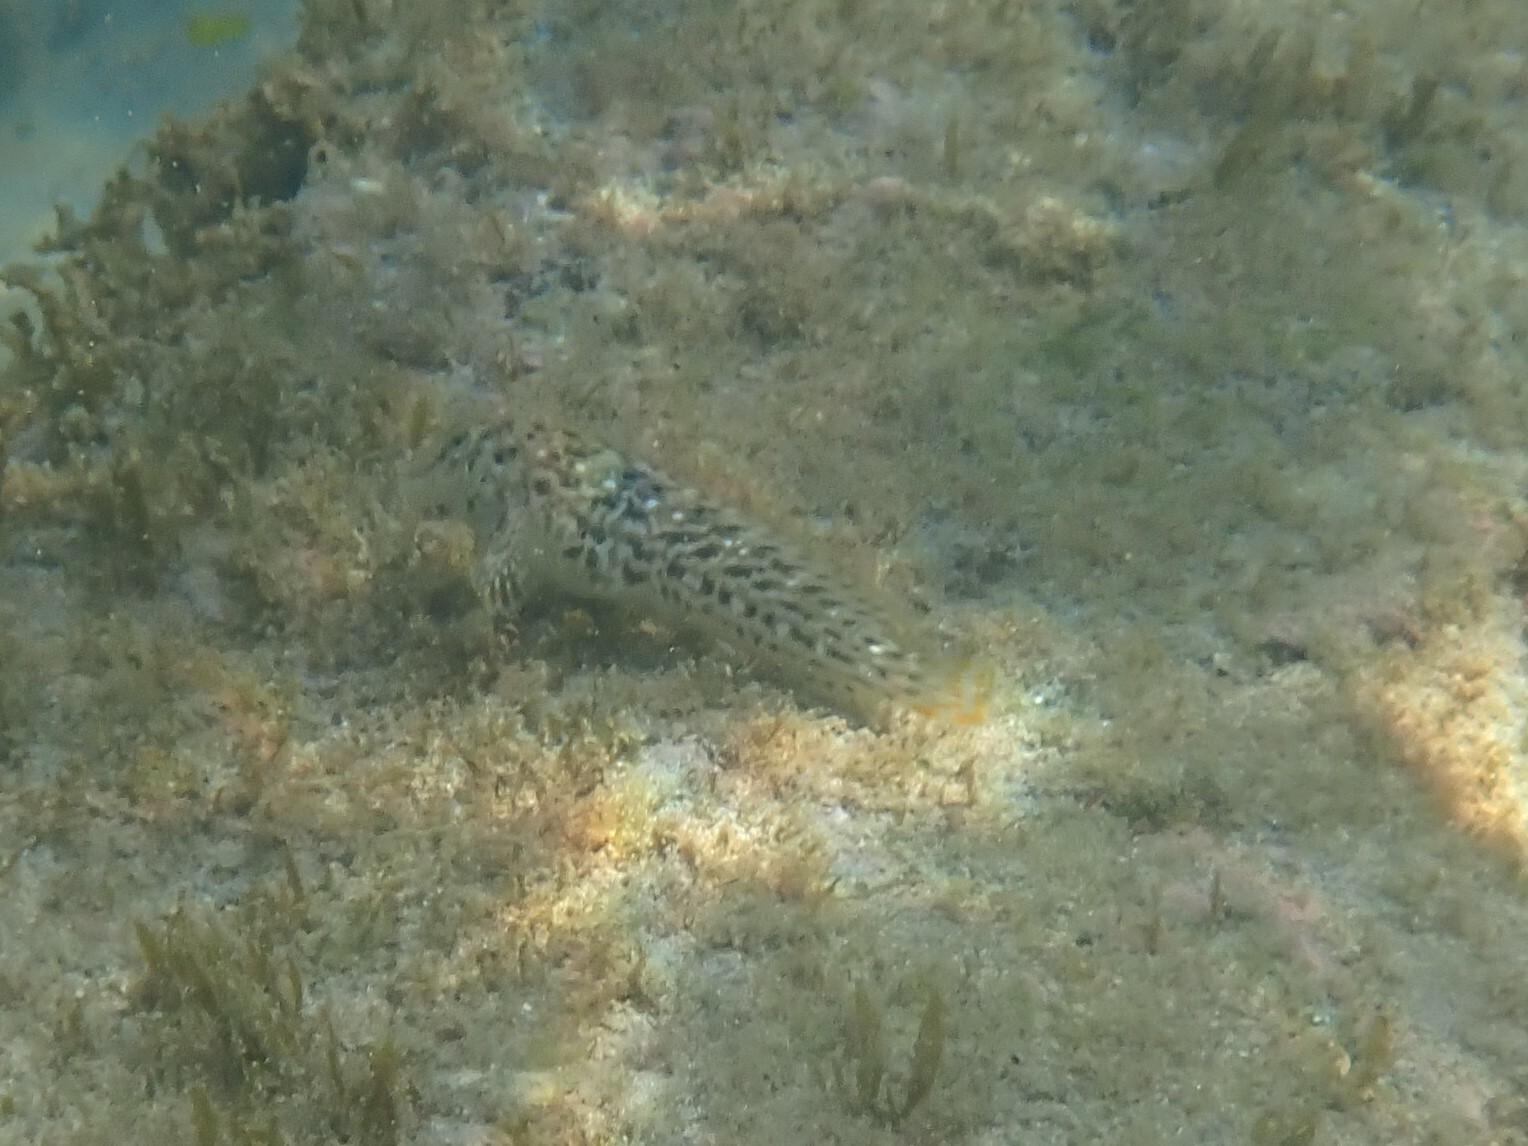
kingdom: Animalia
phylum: Chordata
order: Perciformes
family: Gobiidae
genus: Gobius
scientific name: Gobius incognitus
